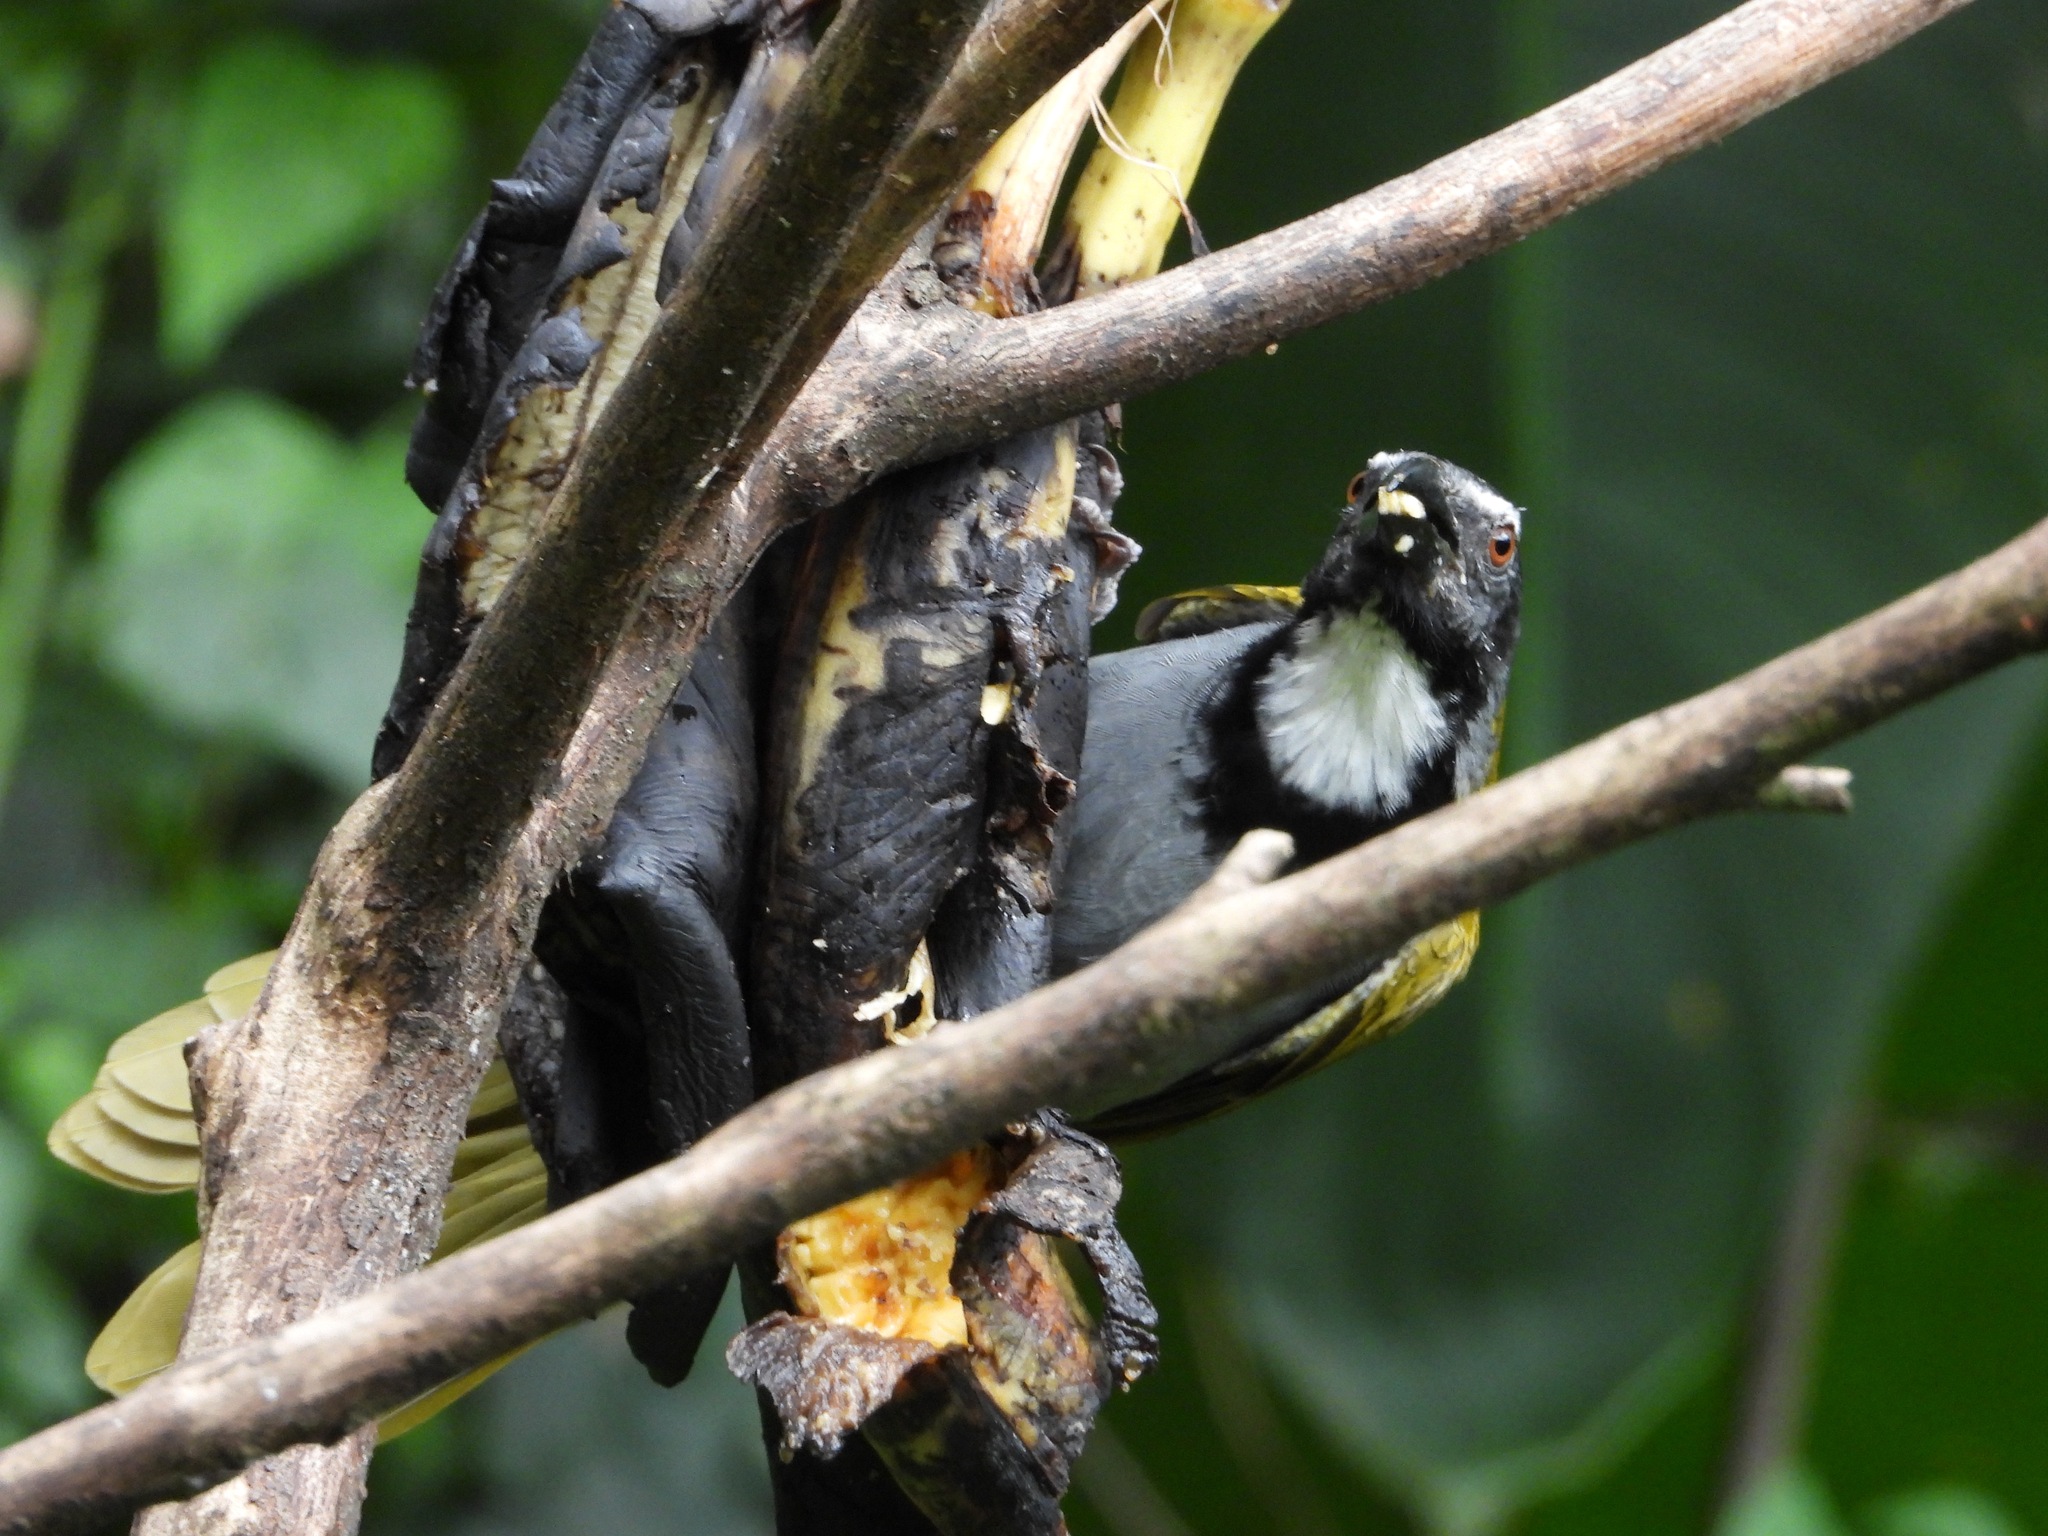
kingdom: Animalia
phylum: Chordata
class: Aves
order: Passeriformes
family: Thraupidae
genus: Saltator
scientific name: Saltator atriceps
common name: Black-headed saltator
